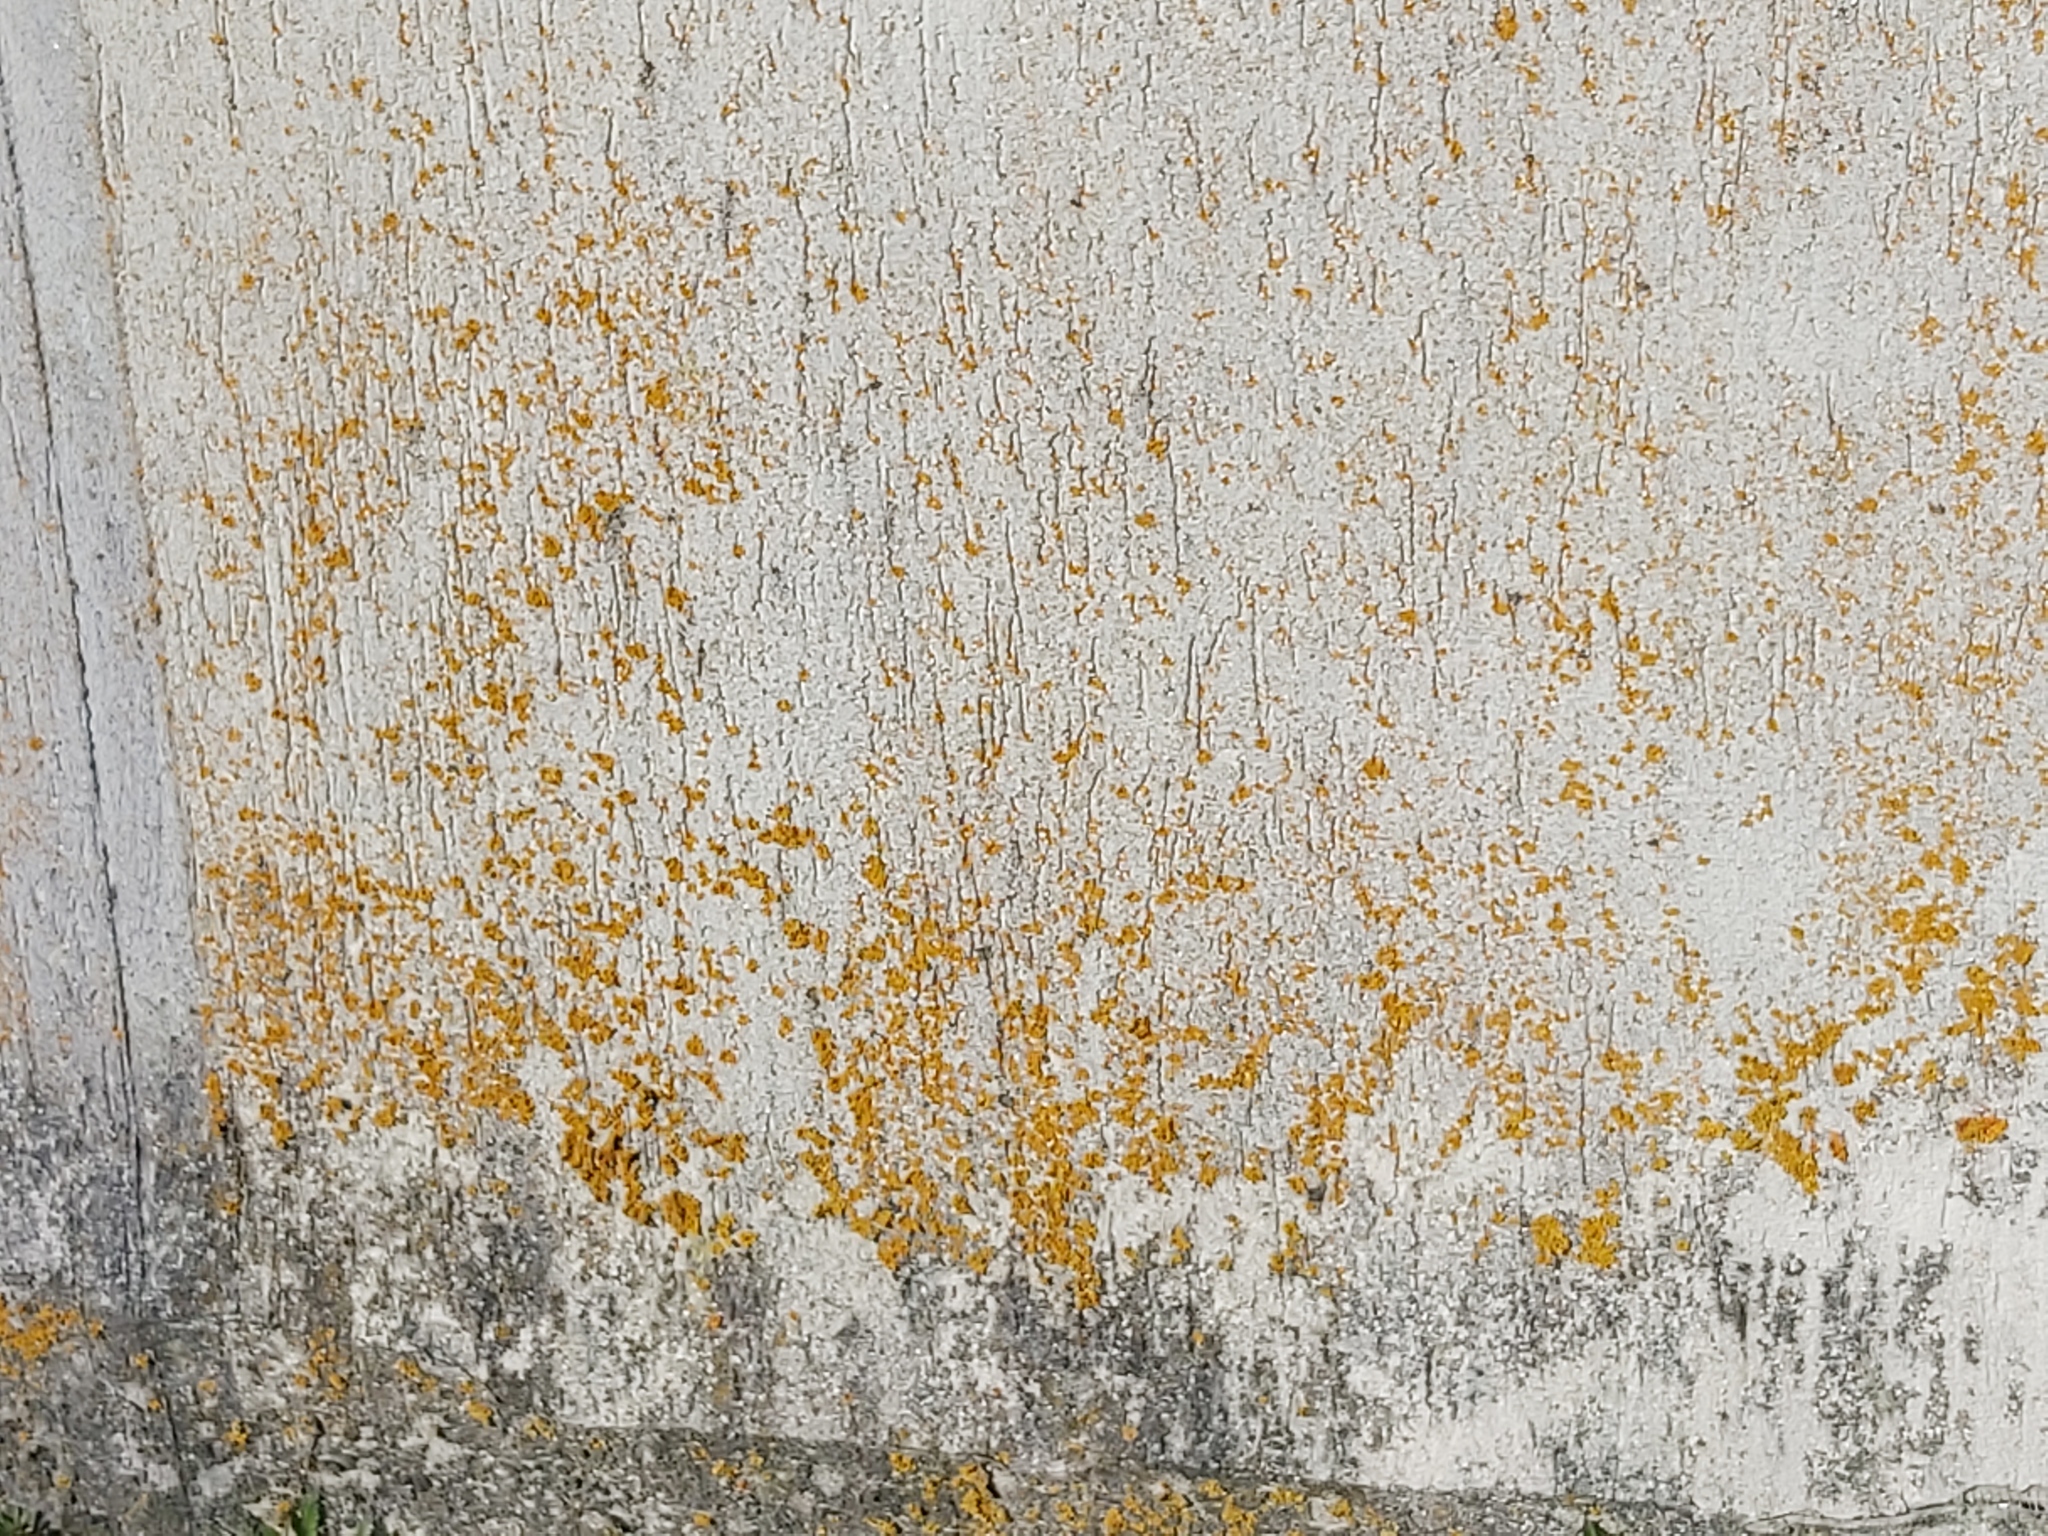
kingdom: Fungi
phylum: Ascomycota
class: Lecanoromycetes
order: Teloschistales
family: Teloschistaceae
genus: Xanthoria
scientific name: Xanthoria parietina
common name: Common orange lichen
